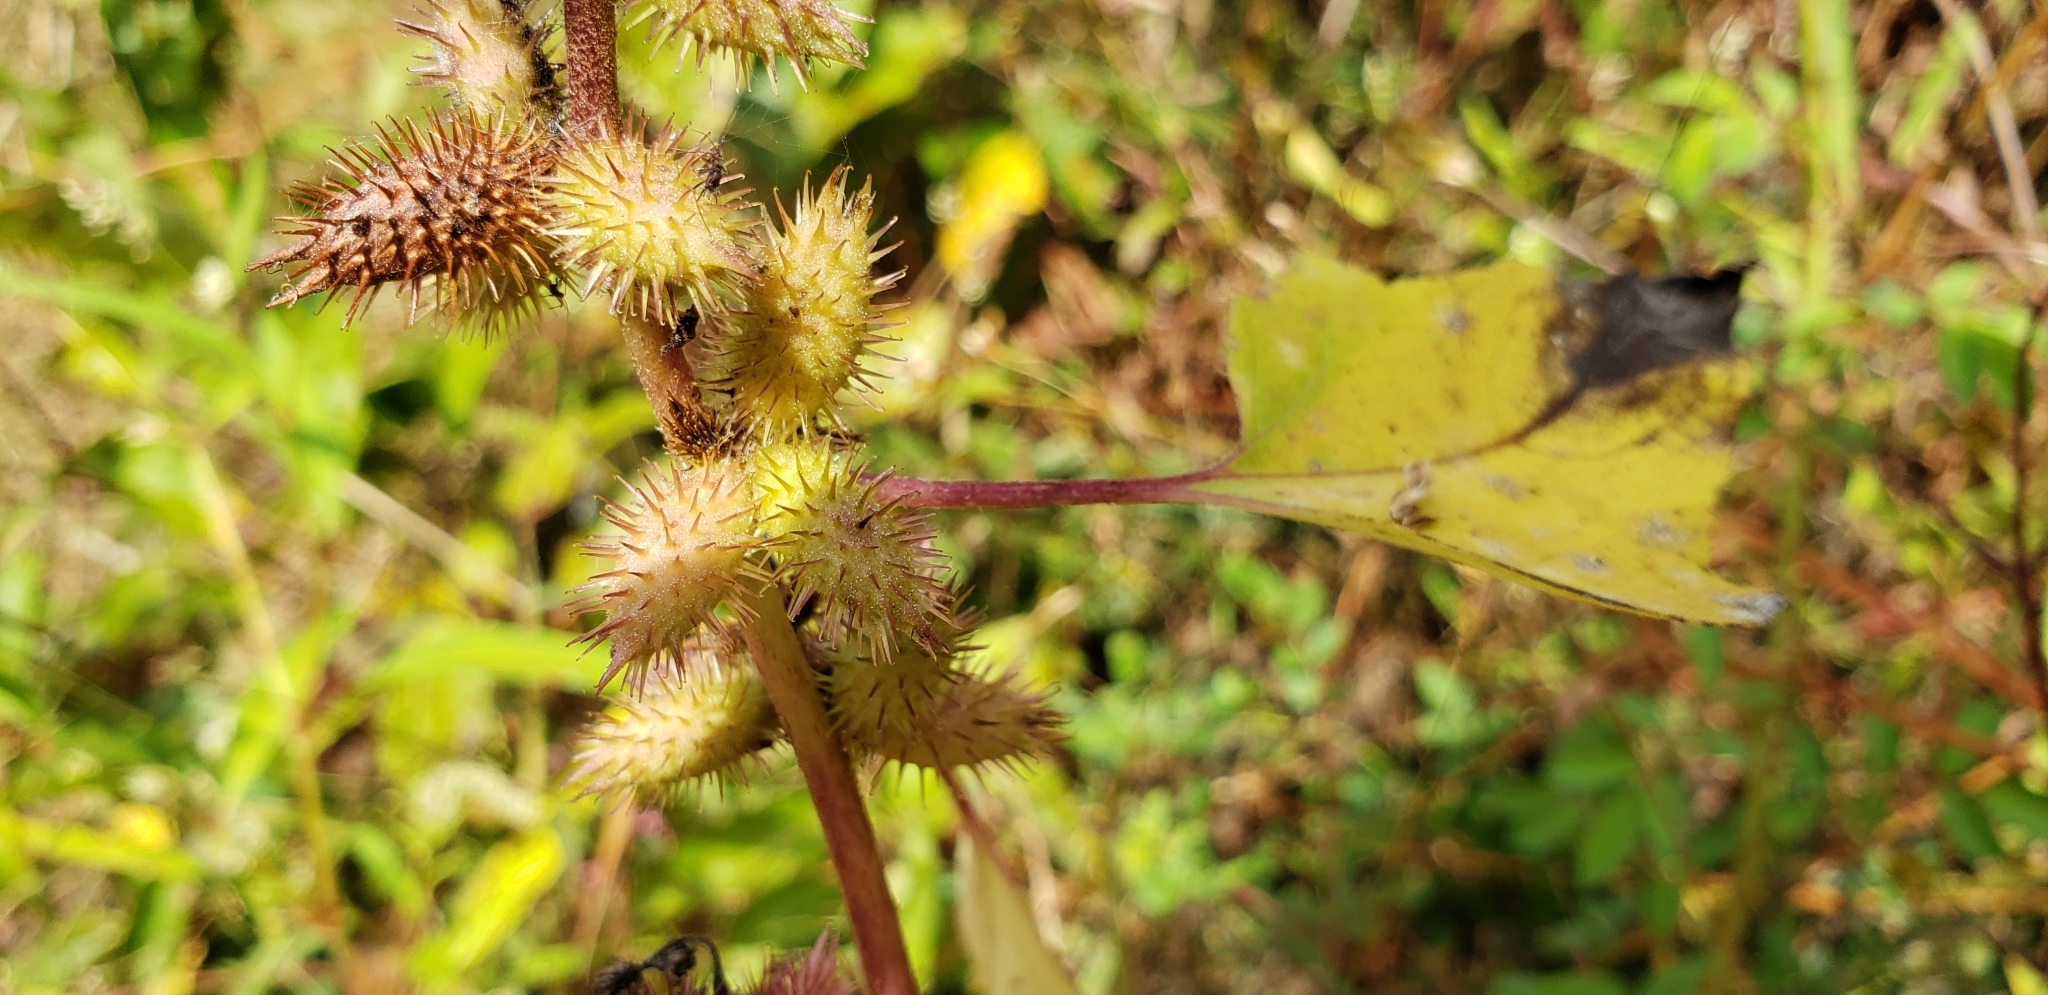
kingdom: Plantae
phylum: Tracheophyta
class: Magnoliopsida
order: Asterales
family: Asteraceae
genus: Xanthium
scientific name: Xanthium strumarium
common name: Rough cocklebur
